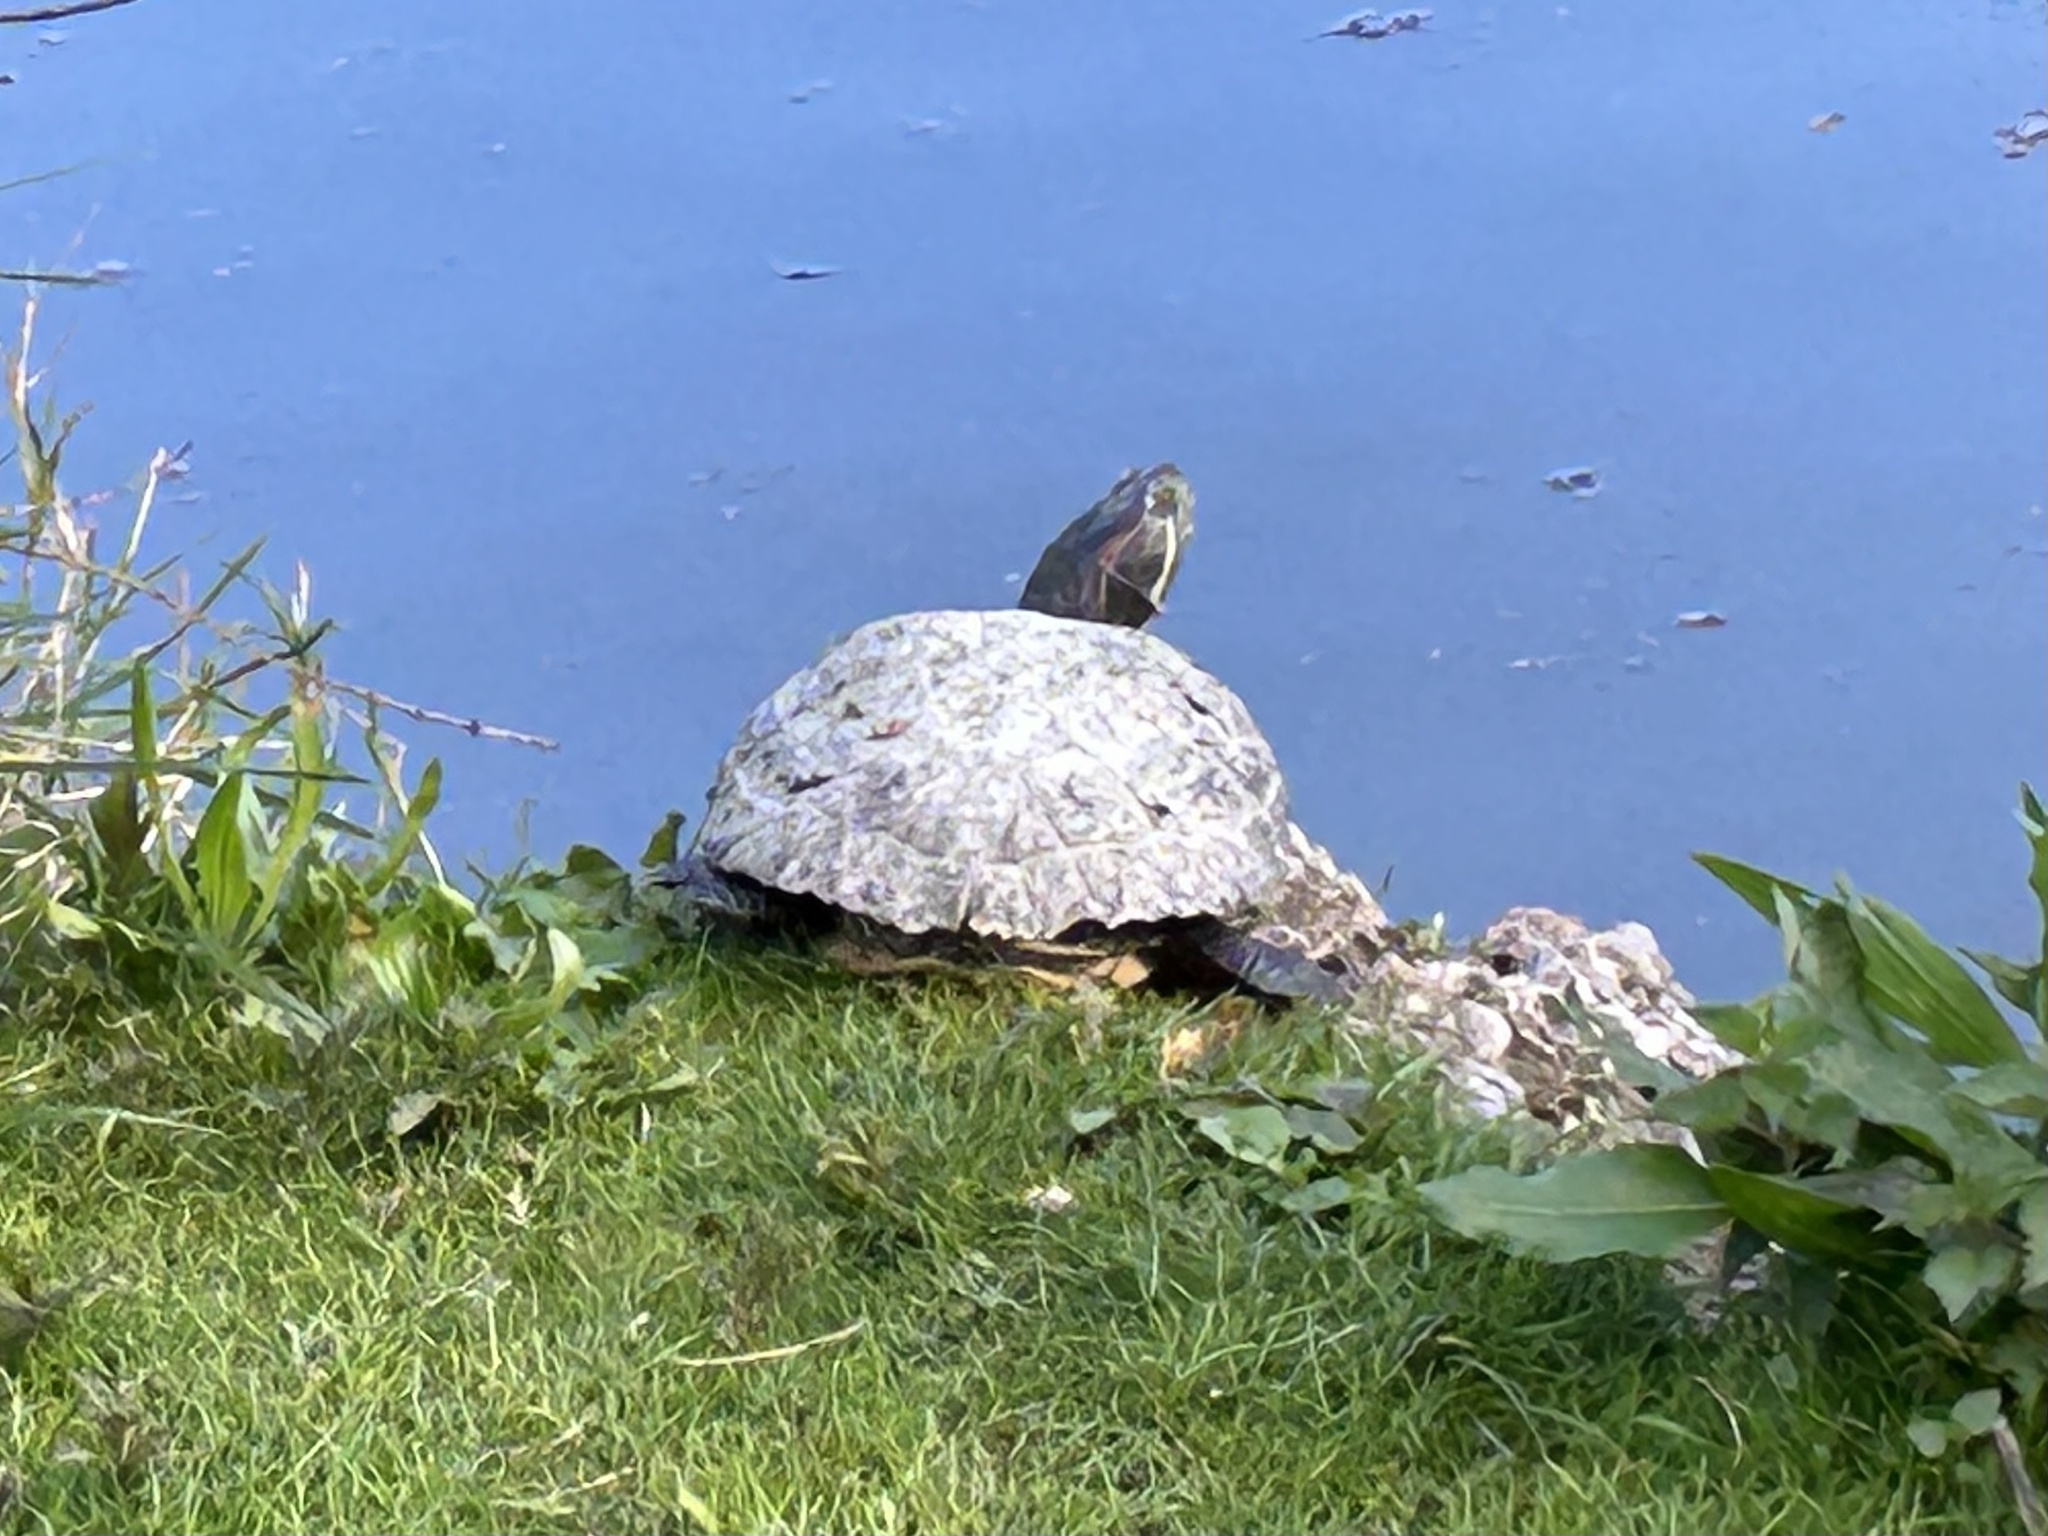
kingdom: Animalia
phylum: Chordata
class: Testudines
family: Emydidae
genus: Trachemys
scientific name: Trachemys scripta
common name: Slider
